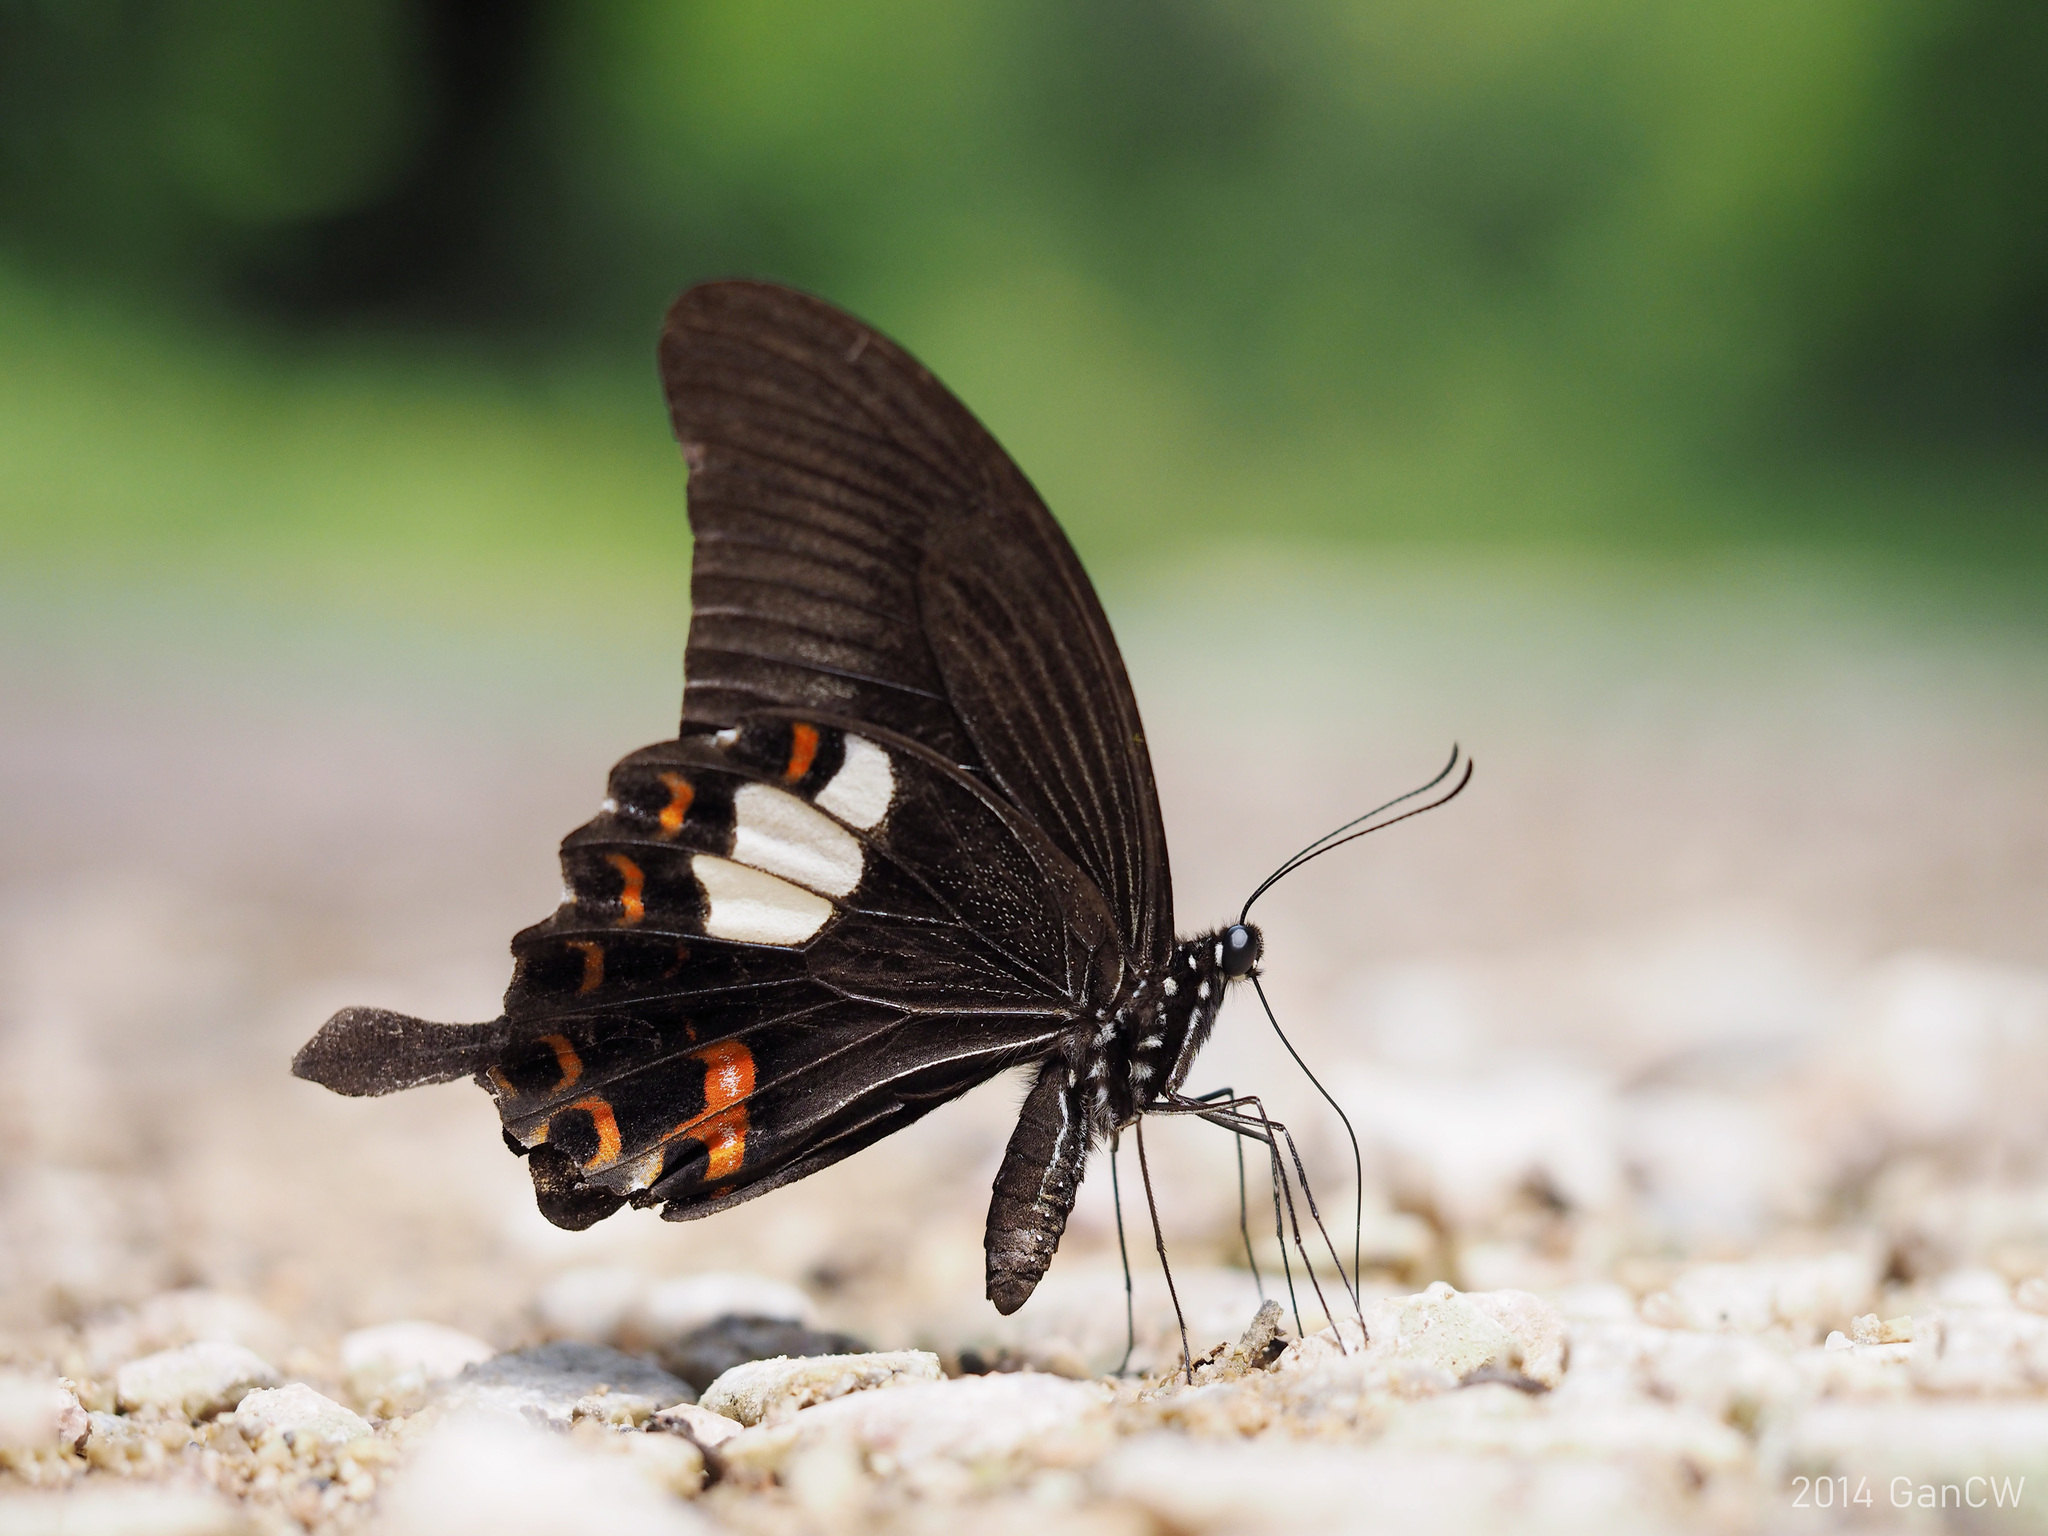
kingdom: Animalia
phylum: Arthropoda
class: Insecta
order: Lepidoptera
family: Papilionidae
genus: Papilio
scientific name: Papilio helenus
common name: Red helen
